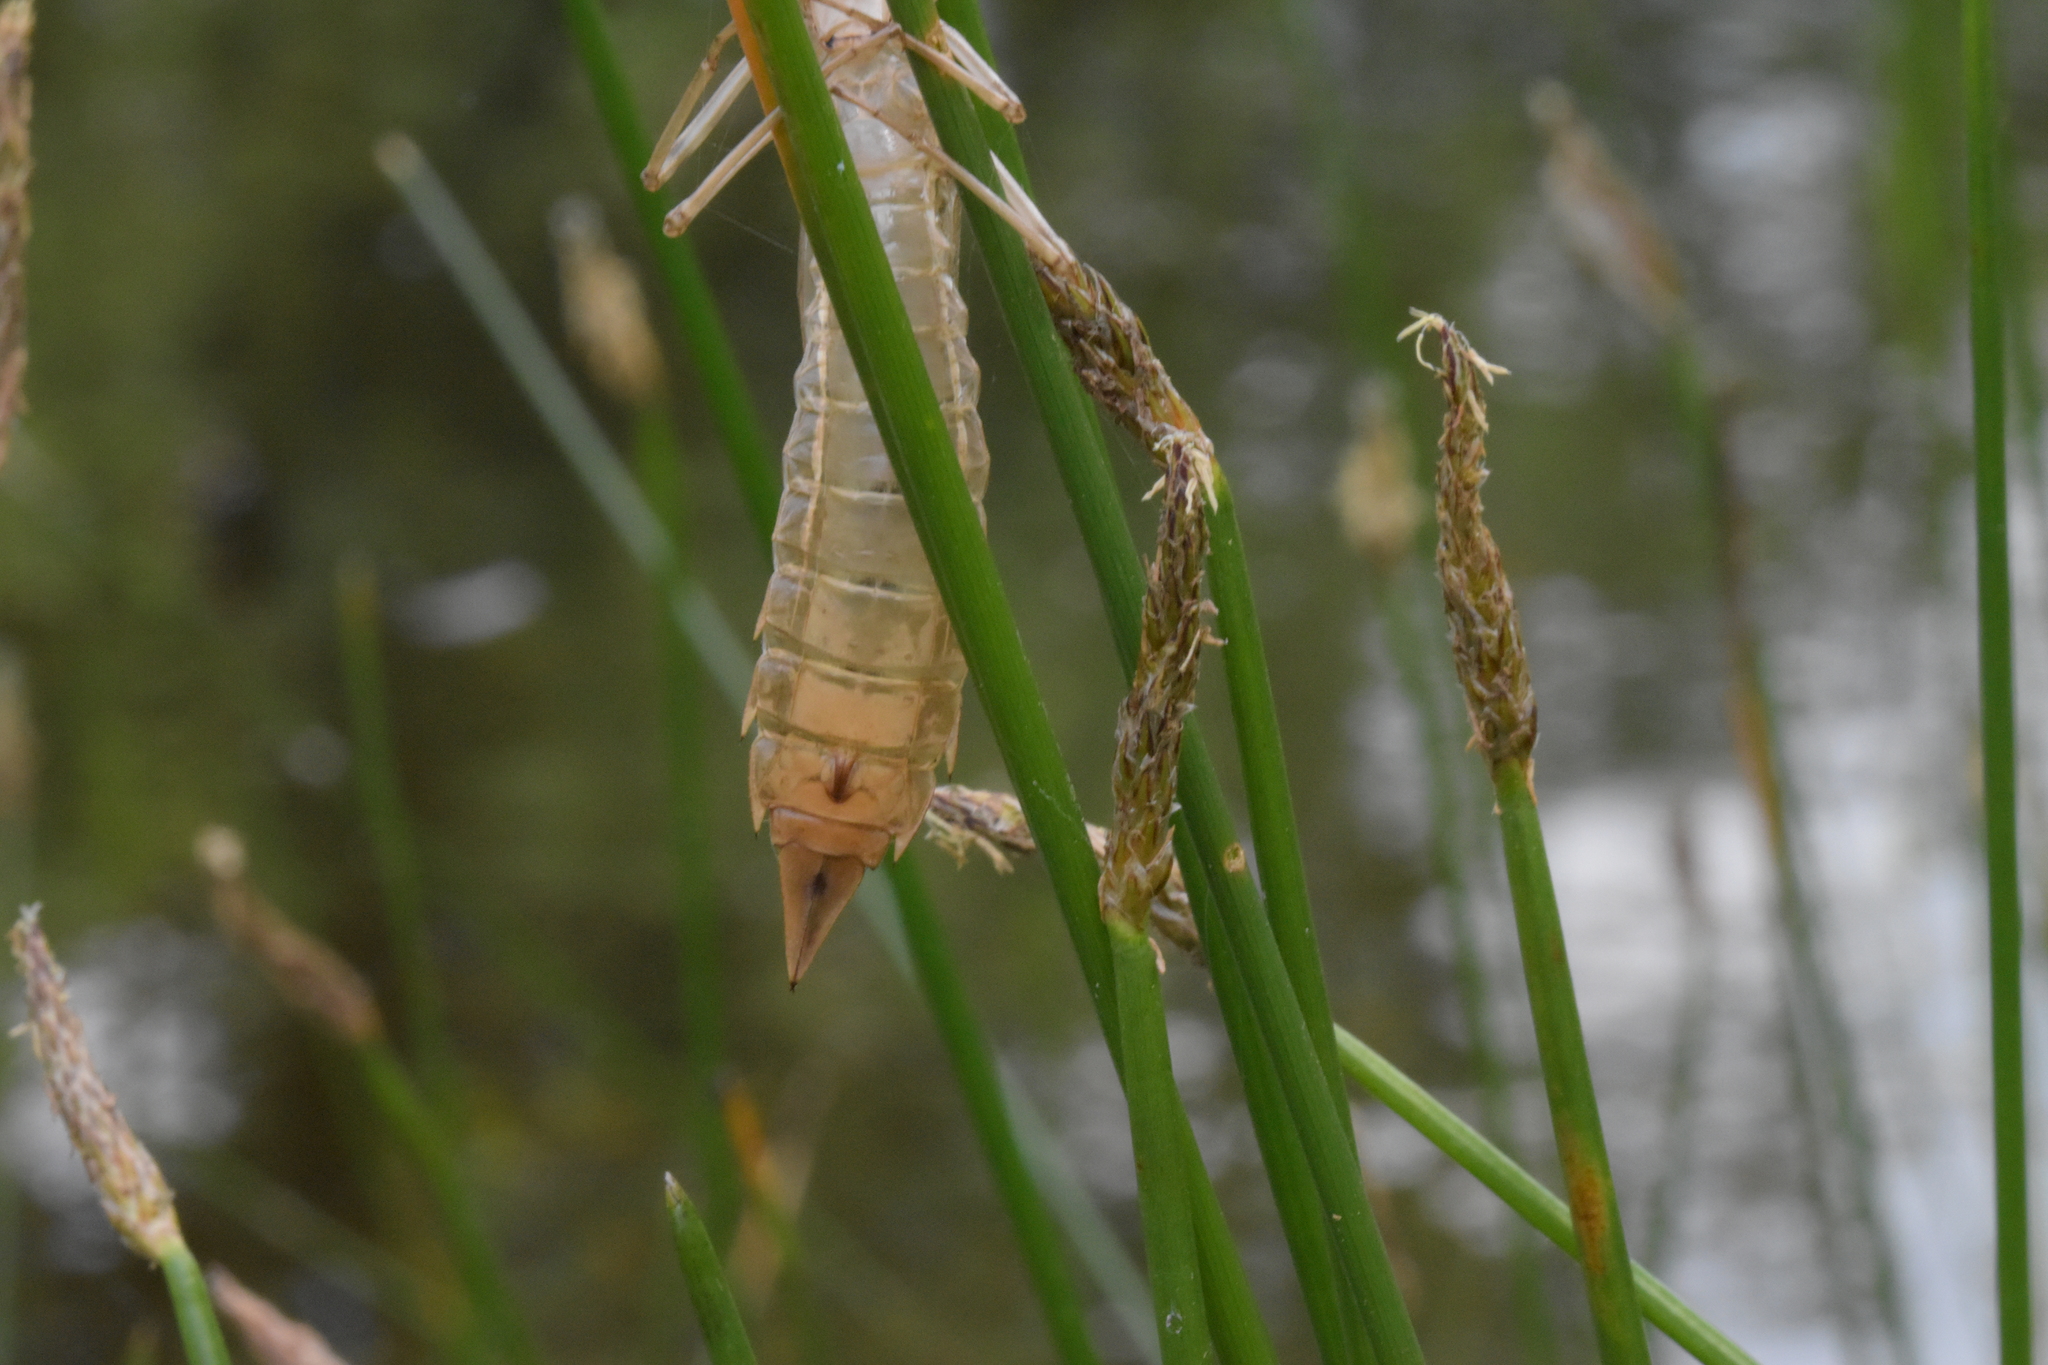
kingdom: Animalia
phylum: Arthropoda
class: Insecta
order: Odonata
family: Aeshnidae
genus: Anax
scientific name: Anax imperator
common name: Emperor dragonfly
